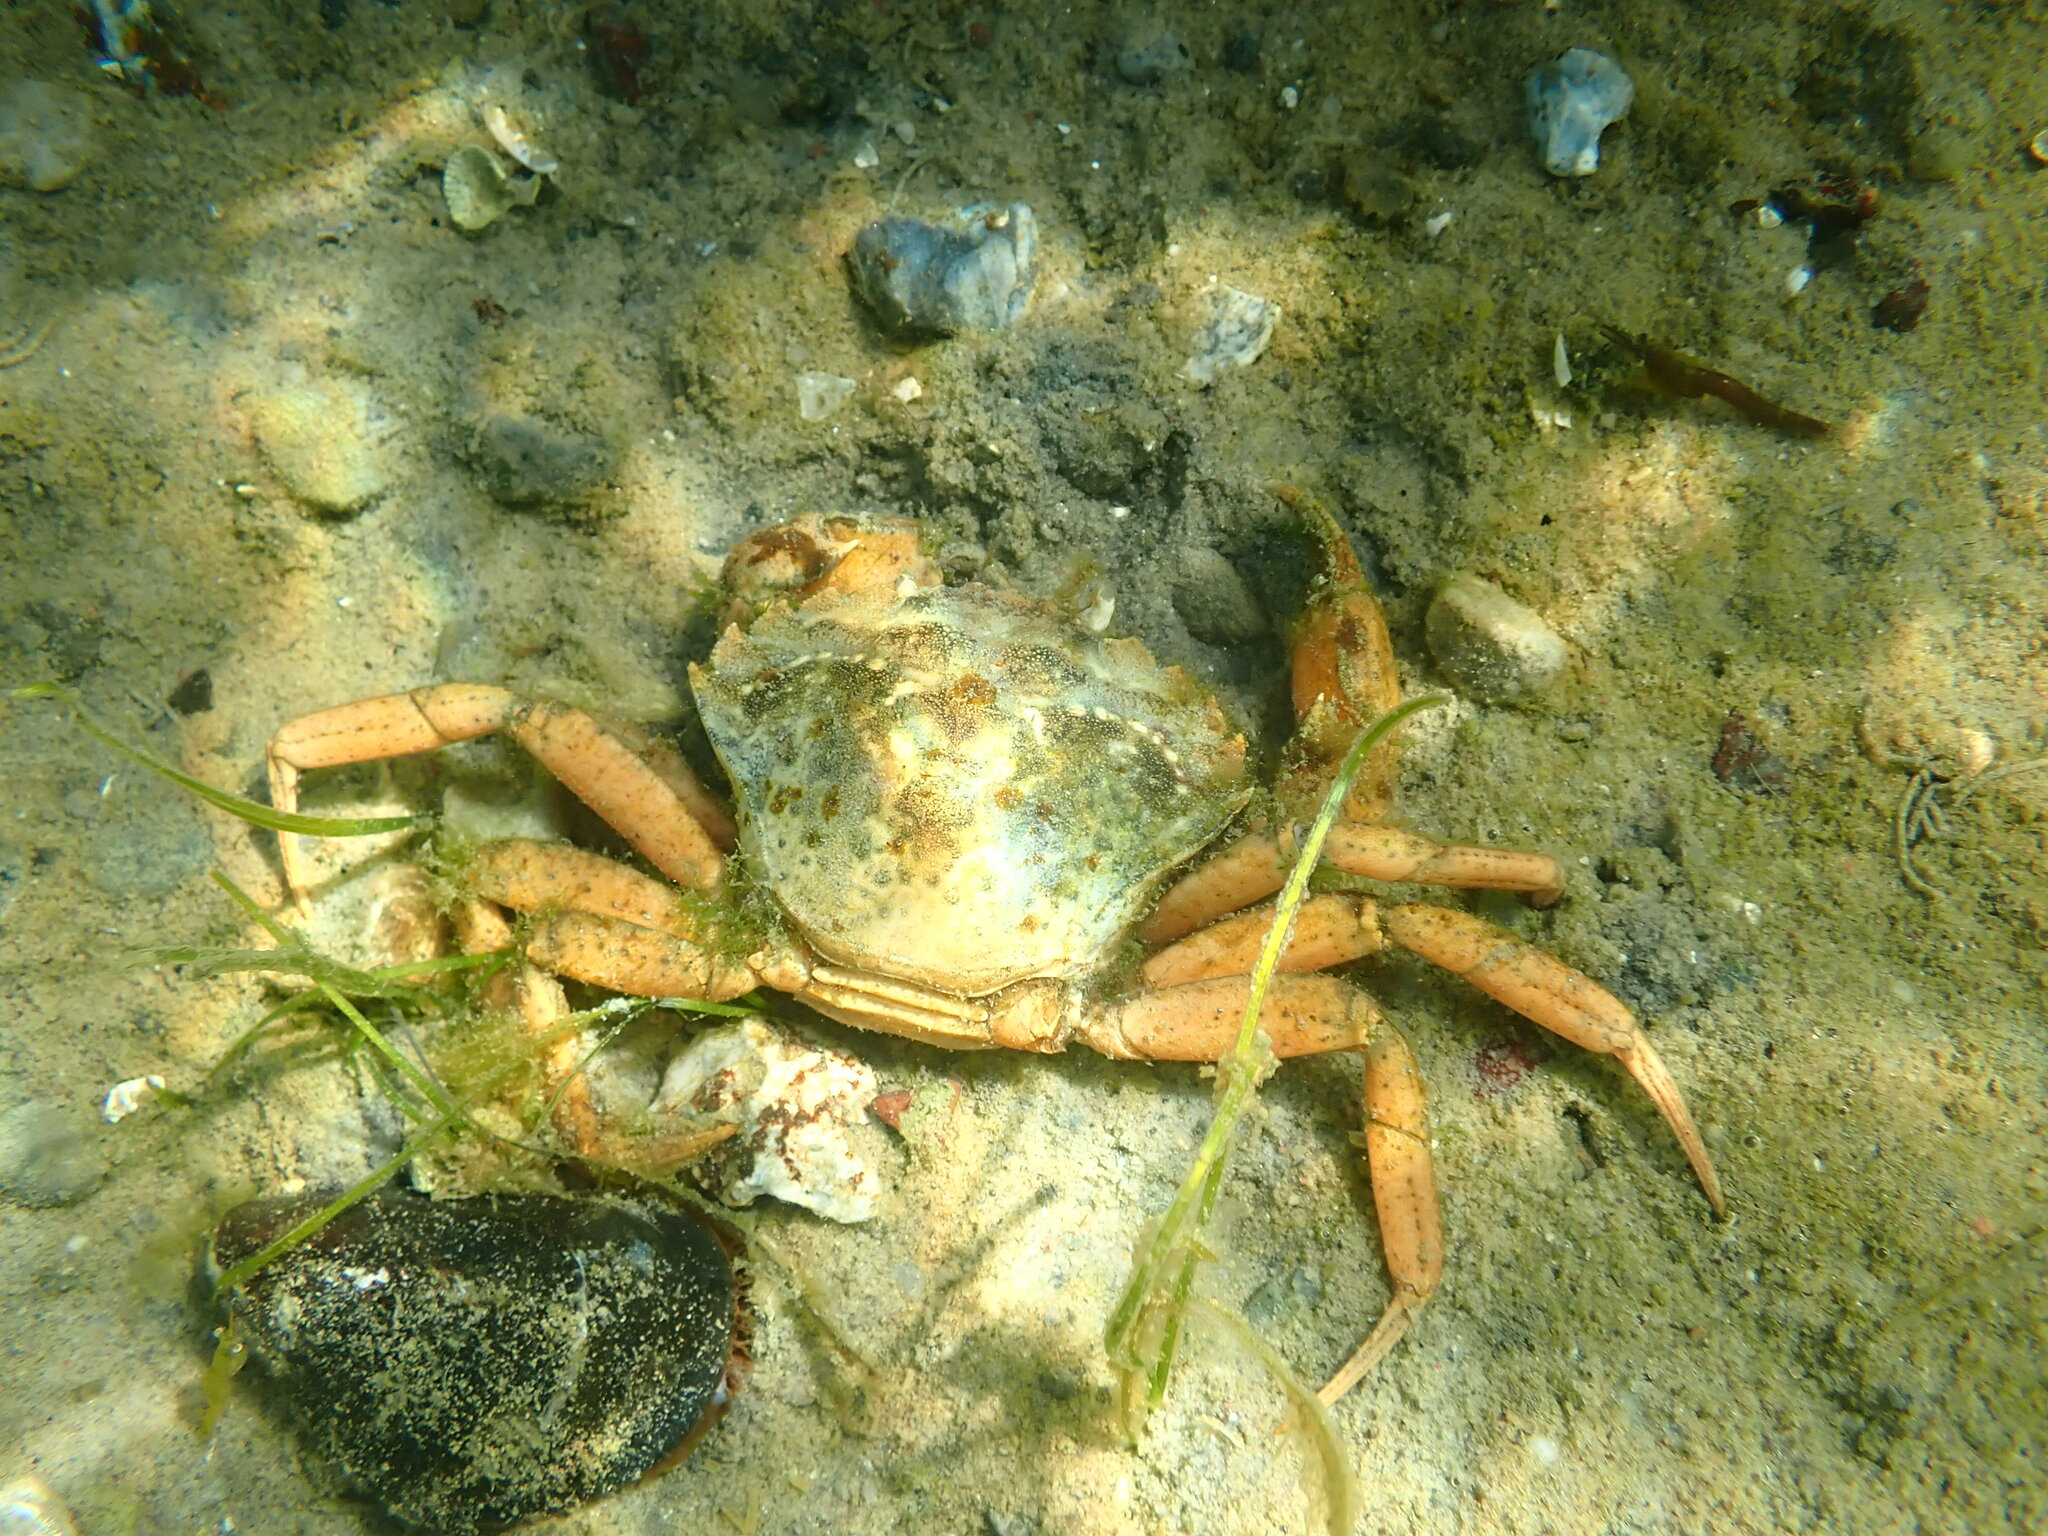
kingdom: Animalia
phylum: Arthropoda
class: Malacostraca
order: Decapoda
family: Carcinidae
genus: Carcinus
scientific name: Carcinus maenas
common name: European green crab
